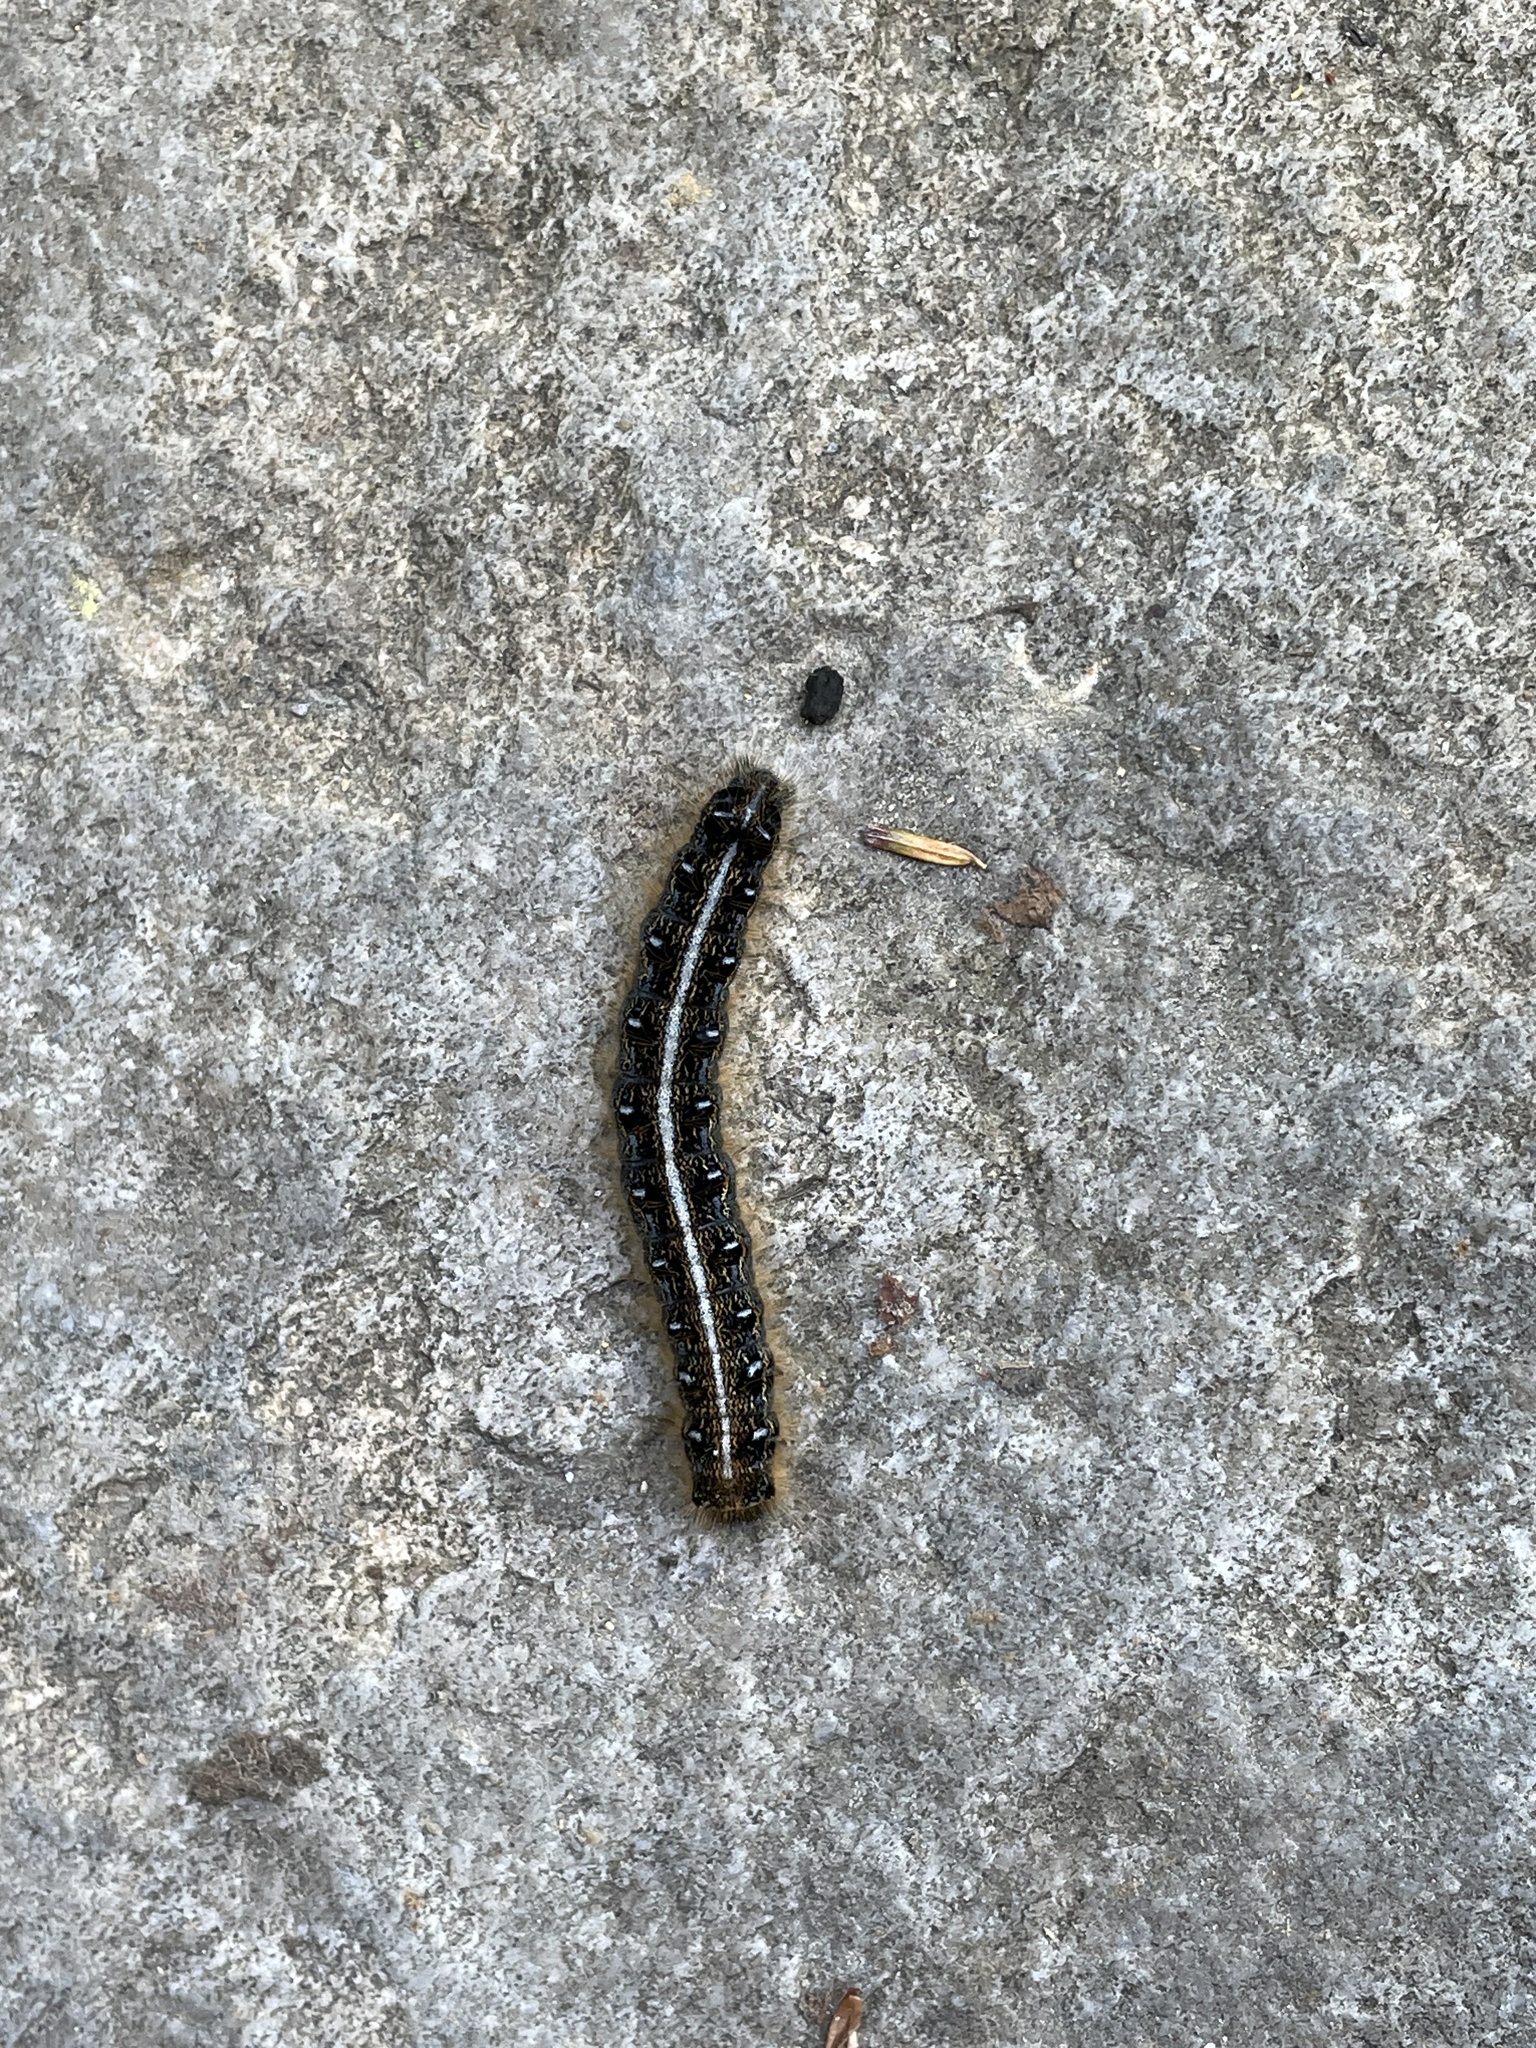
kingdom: Animalia
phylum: Arthropoda
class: Insecta
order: Lepidoptera
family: Lasiocampidae
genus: Malacosoma
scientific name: Malacosoma americana
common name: Eastern tent caterpillar moth
